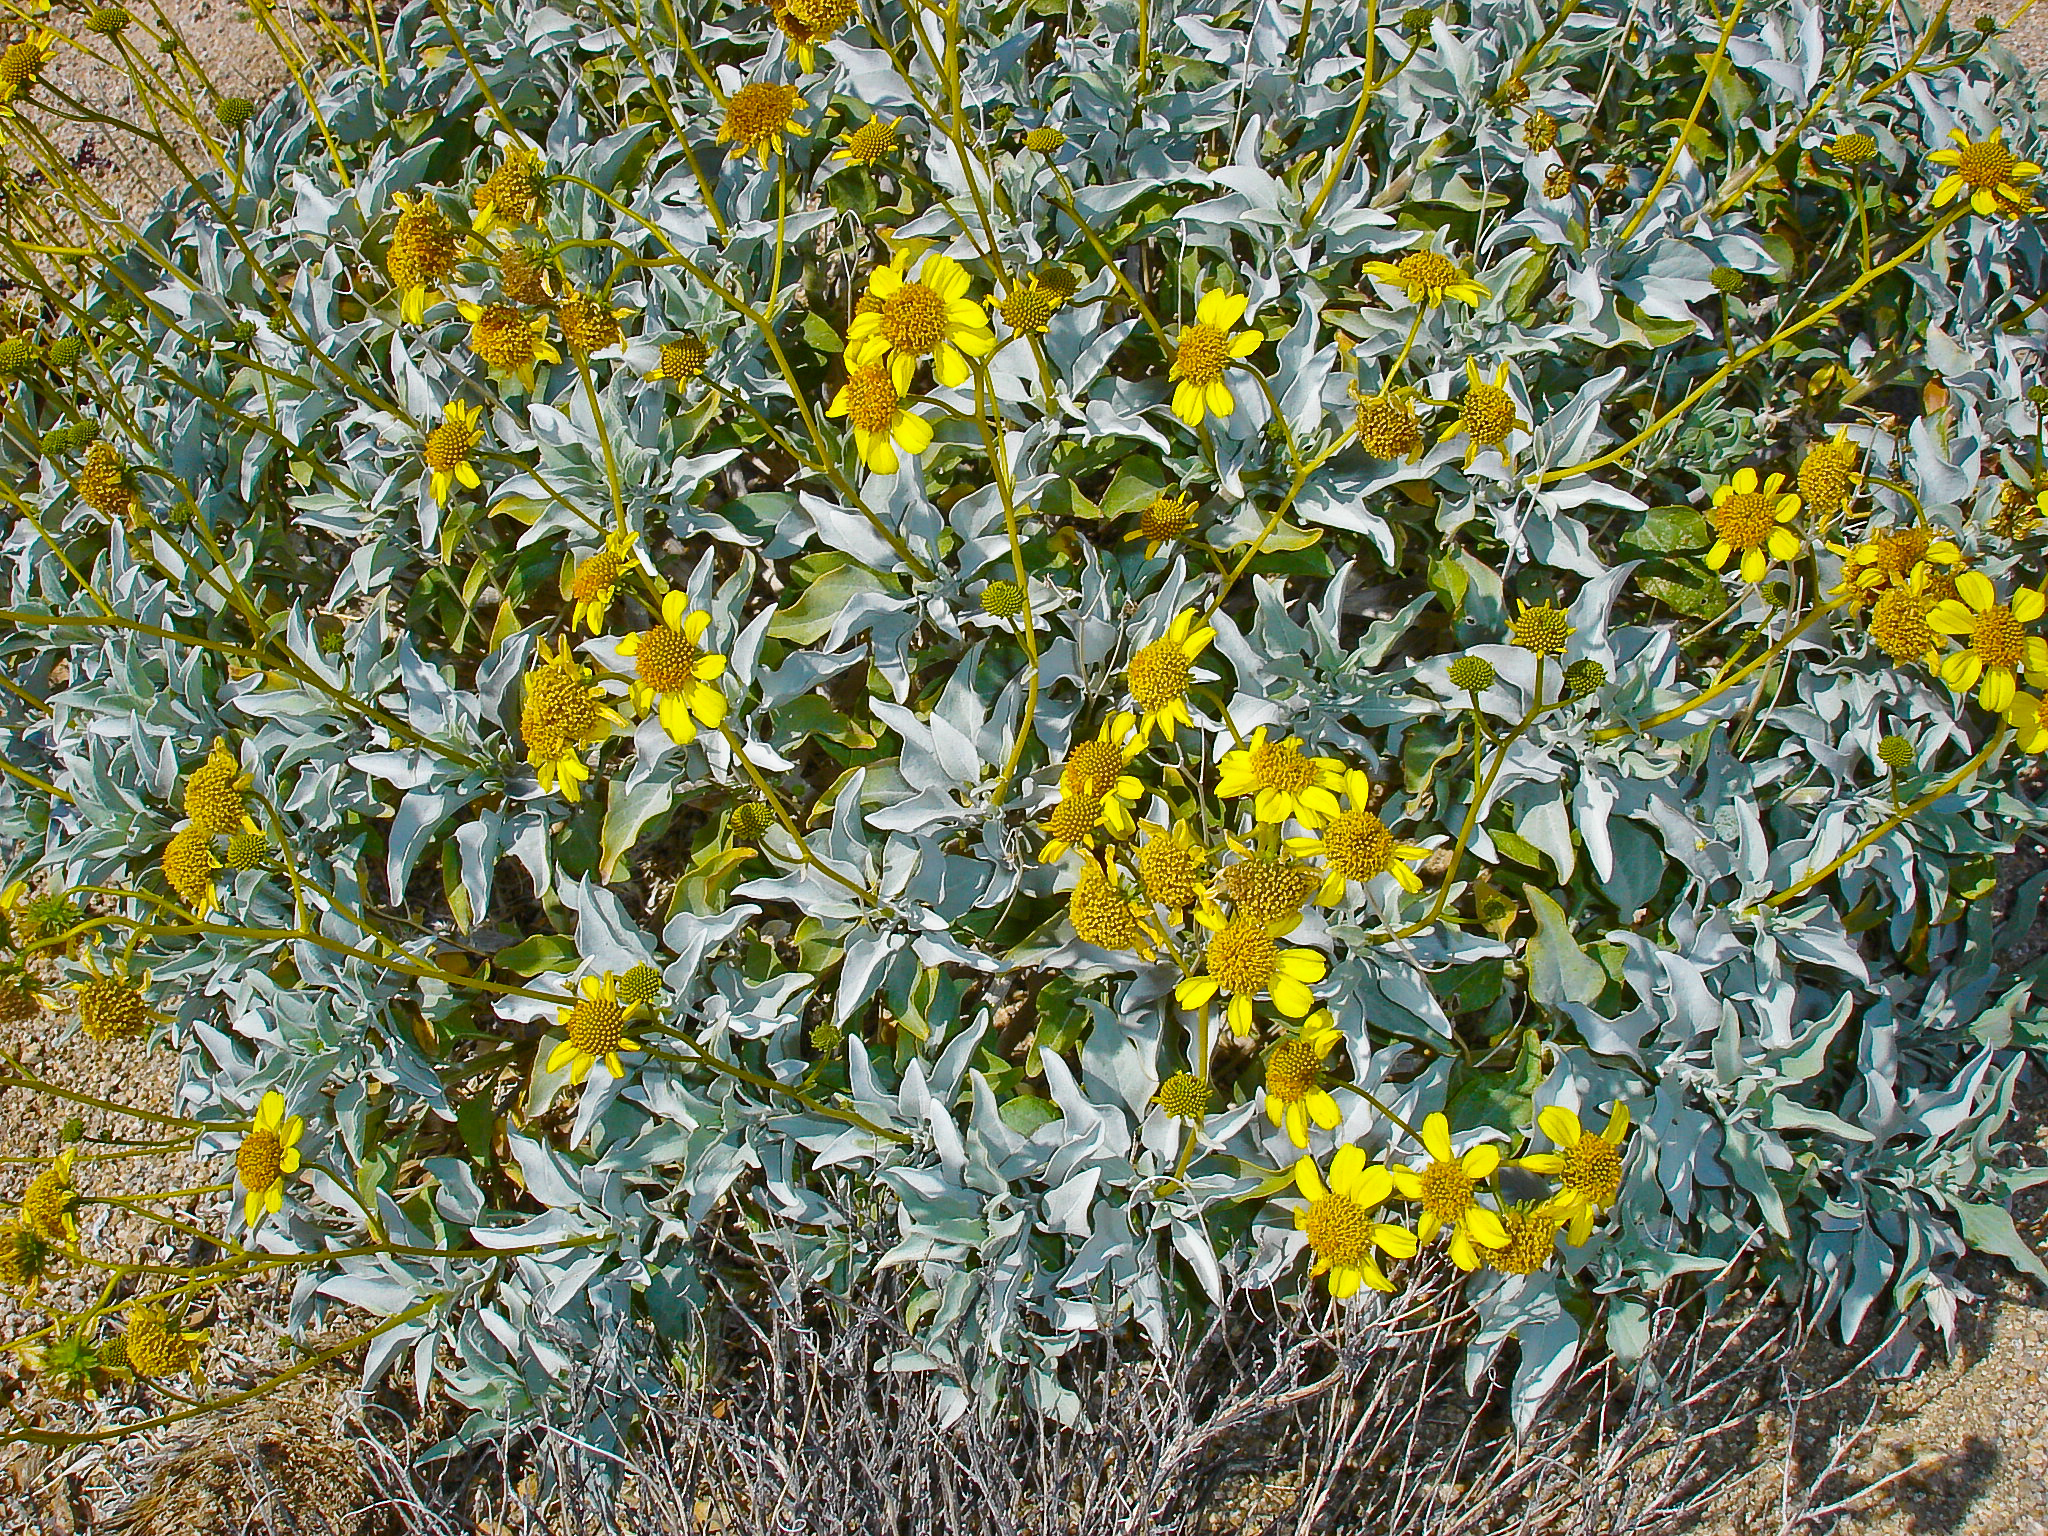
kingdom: Plantae
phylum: Tracheophyta
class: Magnoliopsida
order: Asterales
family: Asteraceae
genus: Encelia
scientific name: Encelia farinosa
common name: Brittlebush
